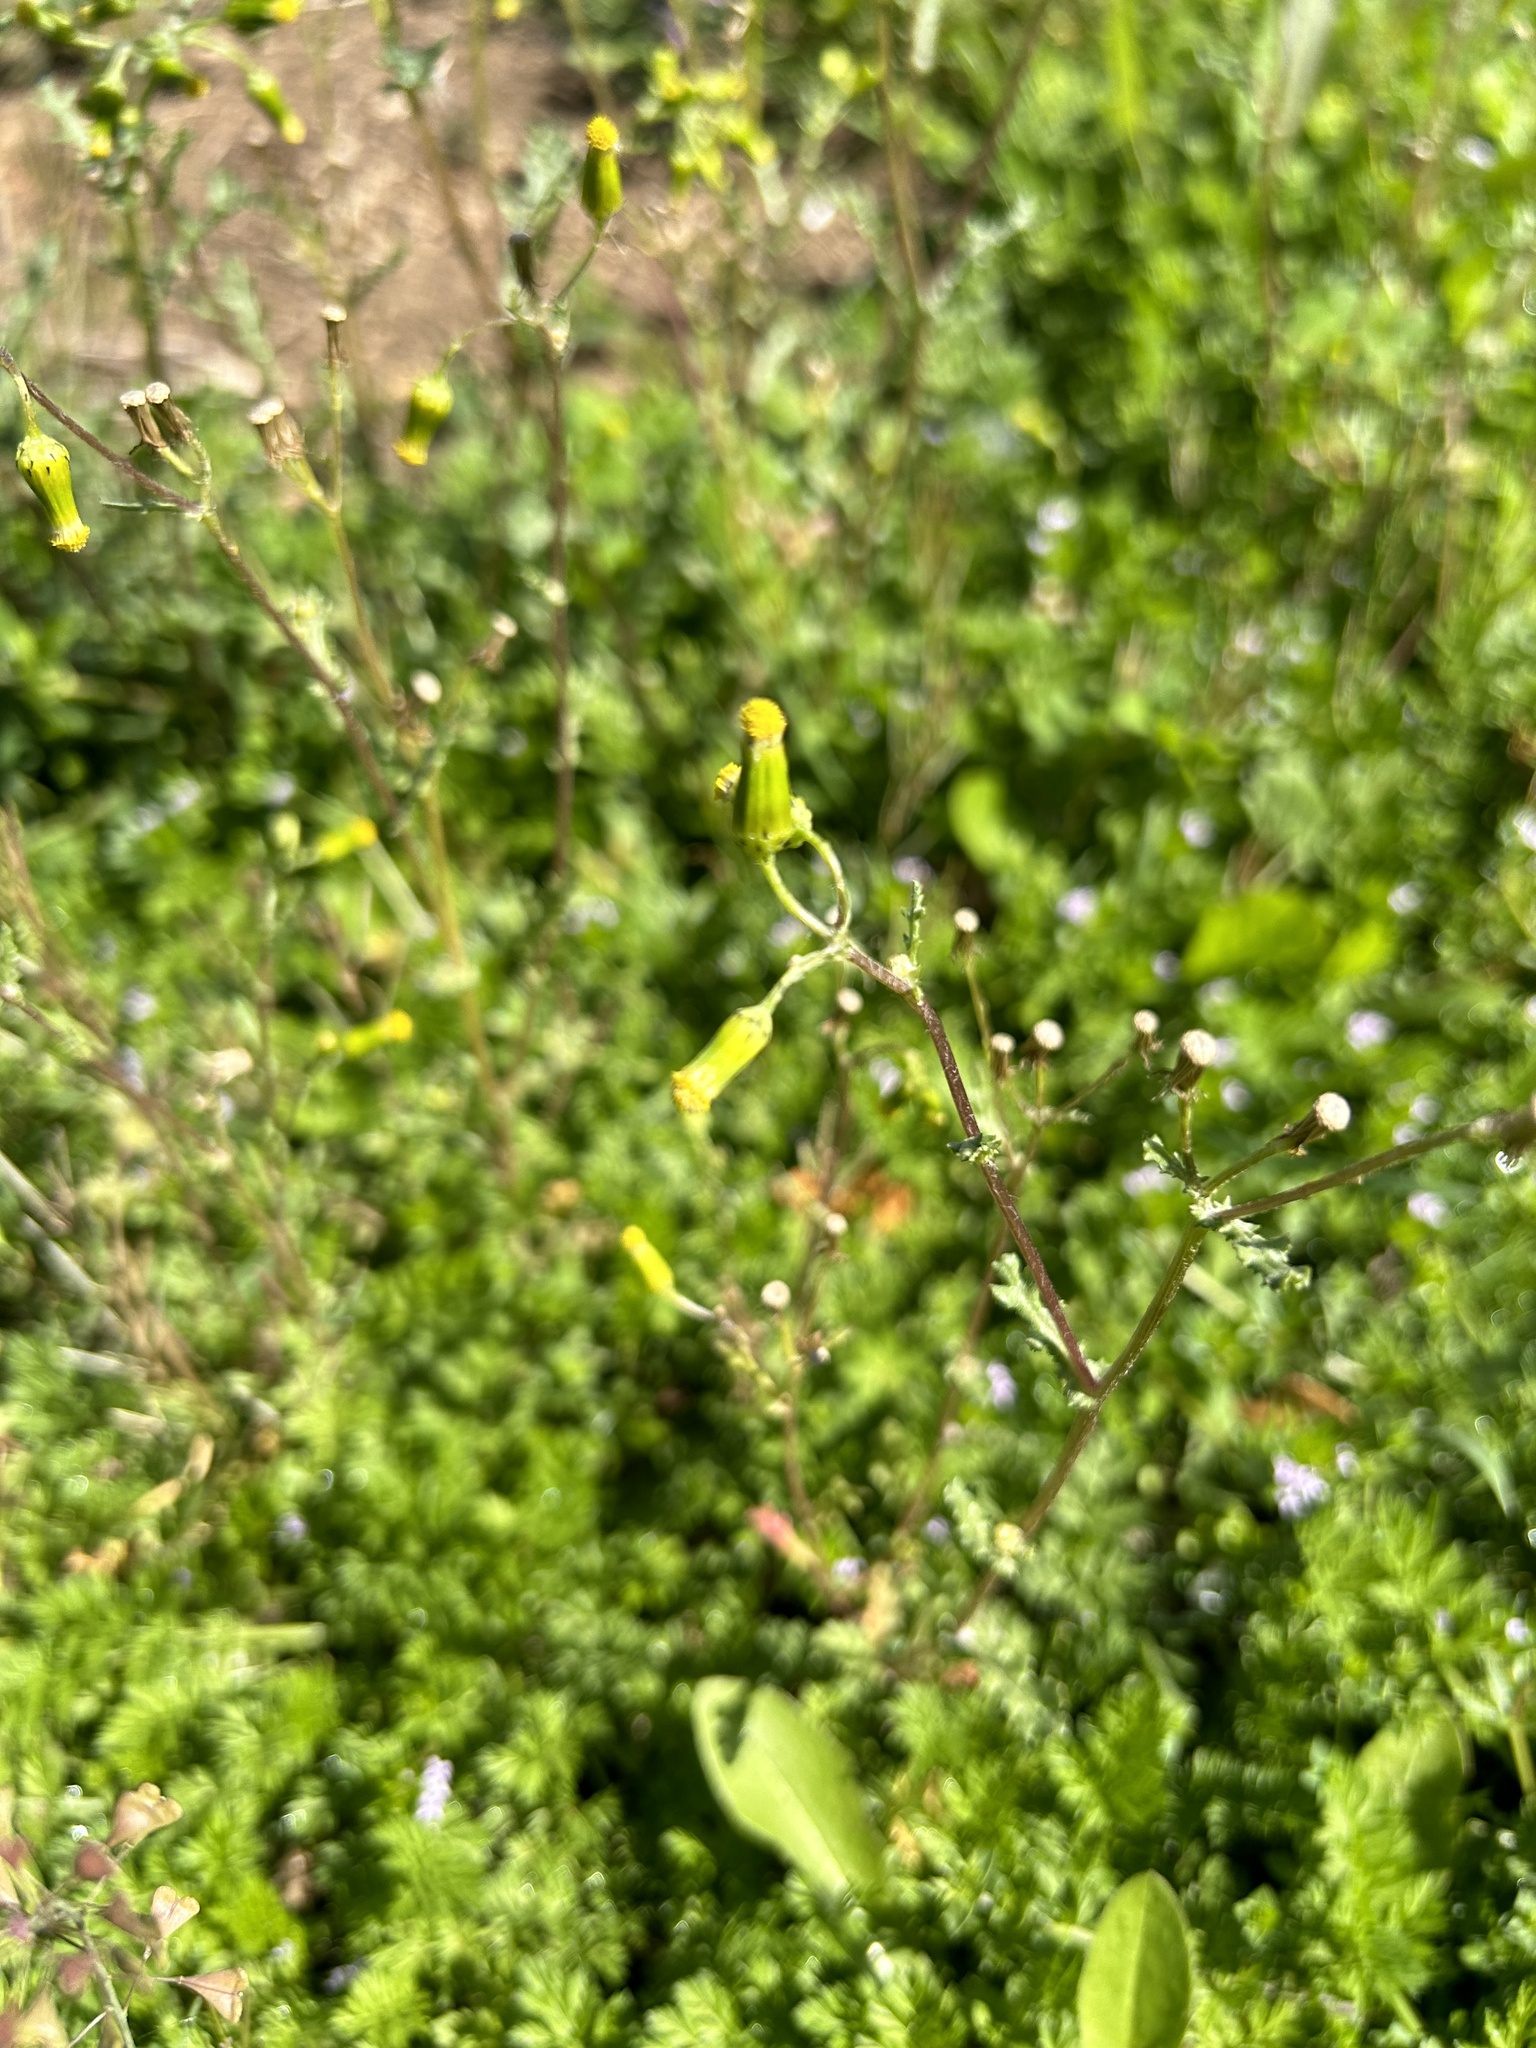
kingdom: Plantae
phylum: Tracheophyta
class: Magnoliopsida
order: Asterales
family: Asteraceae
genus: Senecio
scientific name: Senecio vulgaris
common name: Old-man-in-the-spring
